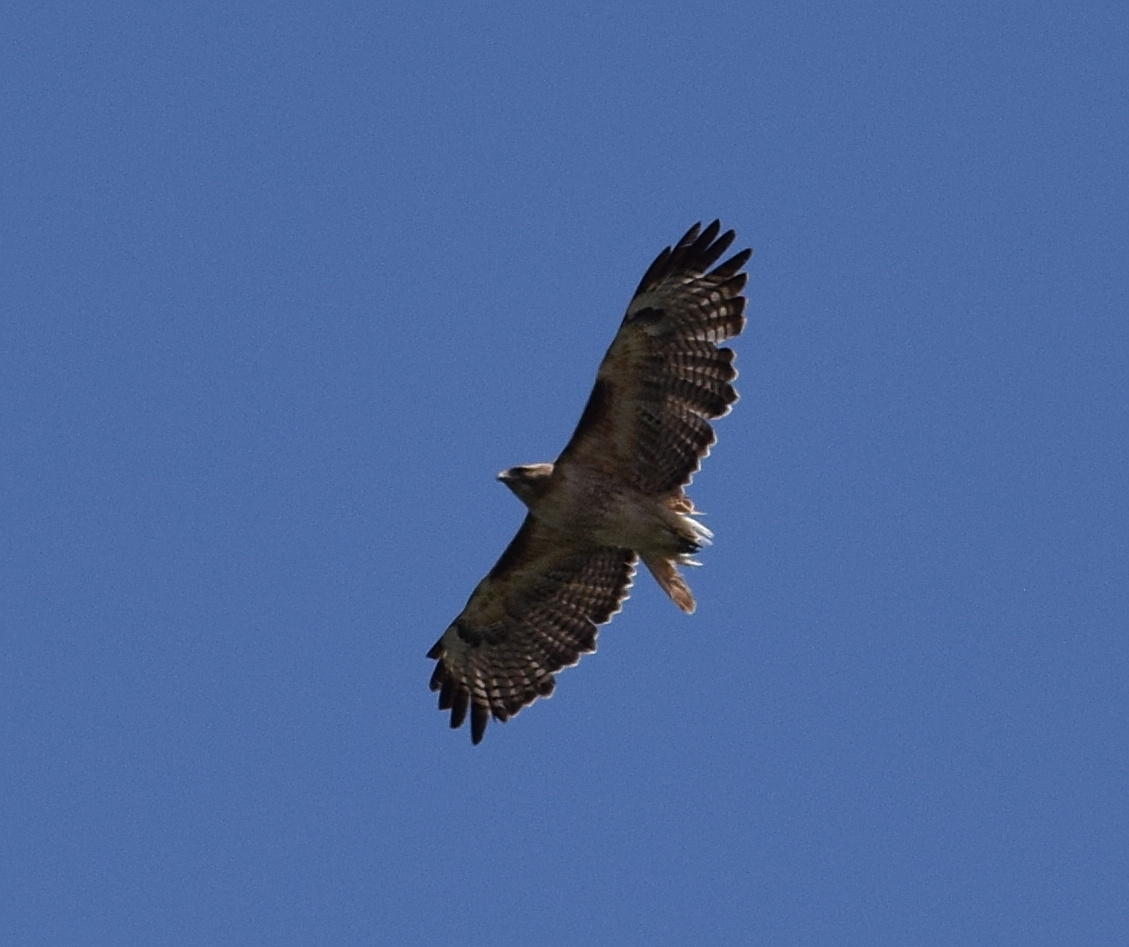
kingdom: Animalia
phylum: Chordata
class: Aves
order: Accipitriformes
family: Accipitridae
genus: Buteo
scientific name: Buteo jamaicensis
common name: Red-tailed hawk
